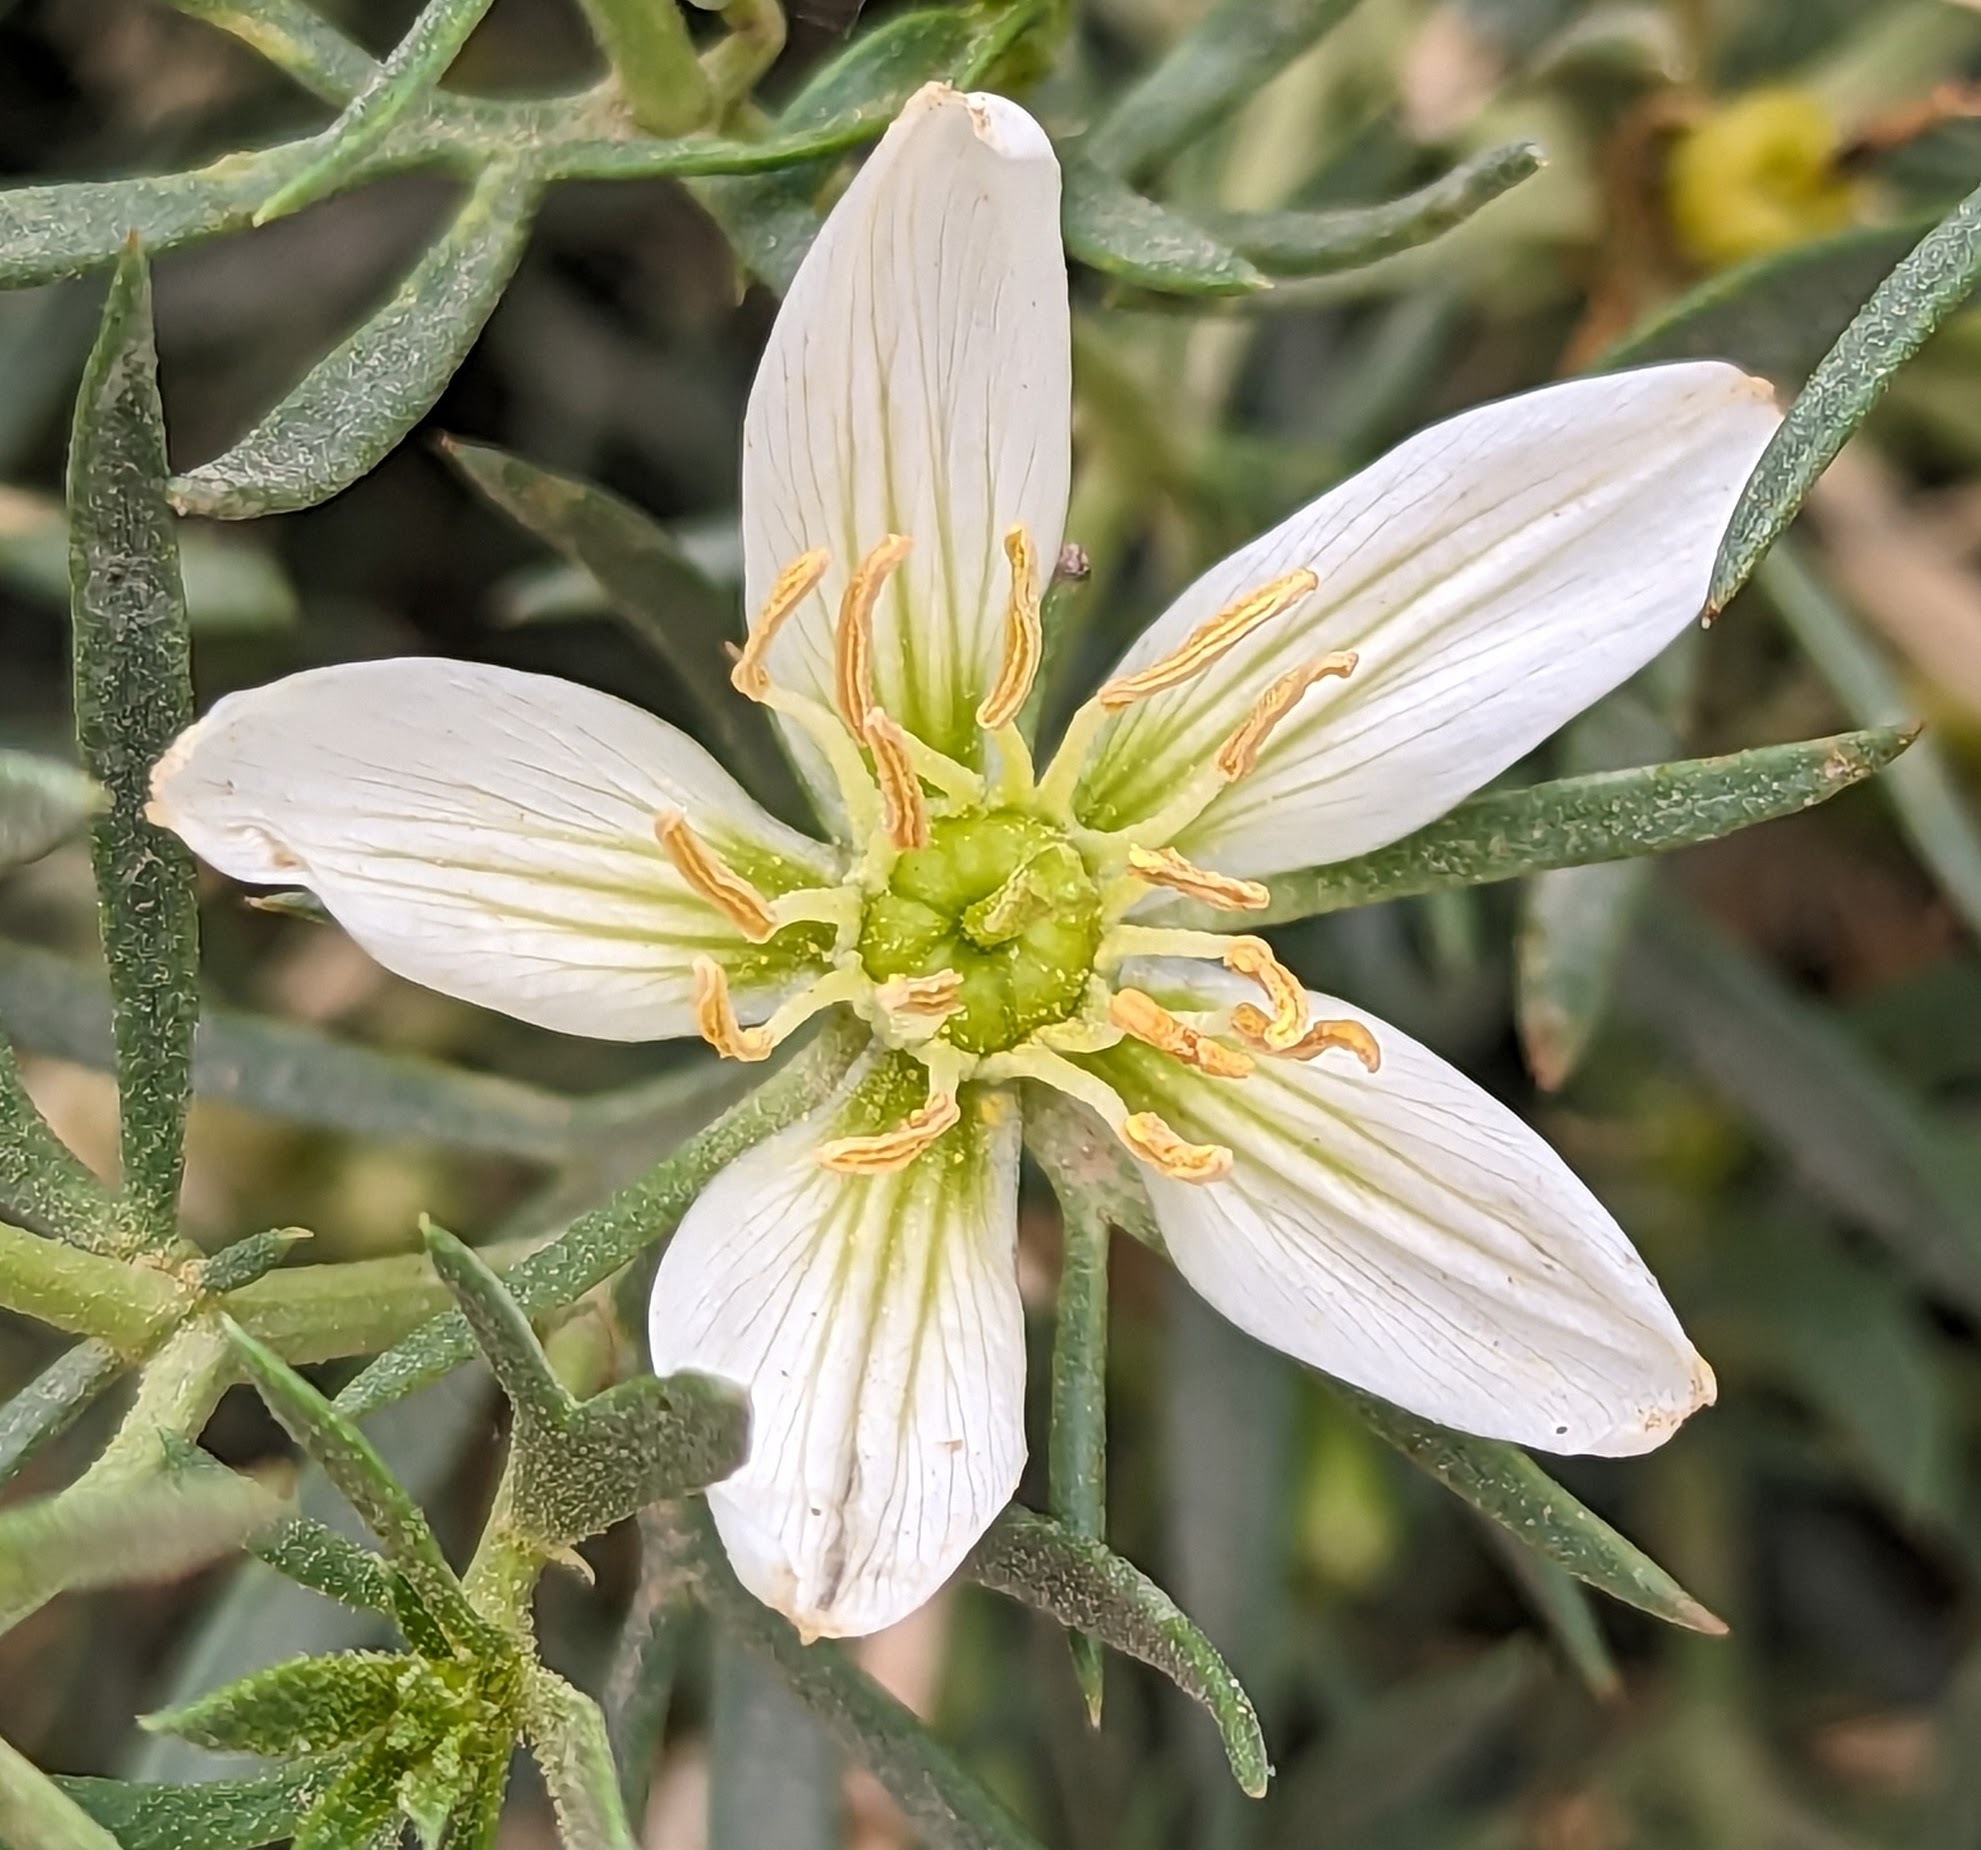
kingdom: Plantae
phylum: Tracheophyta
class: Magnoliopsida
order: Sapindales
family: Tetradiclidaceae
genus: Peganum
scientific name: Peganum harmala
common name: Harmal peganum
